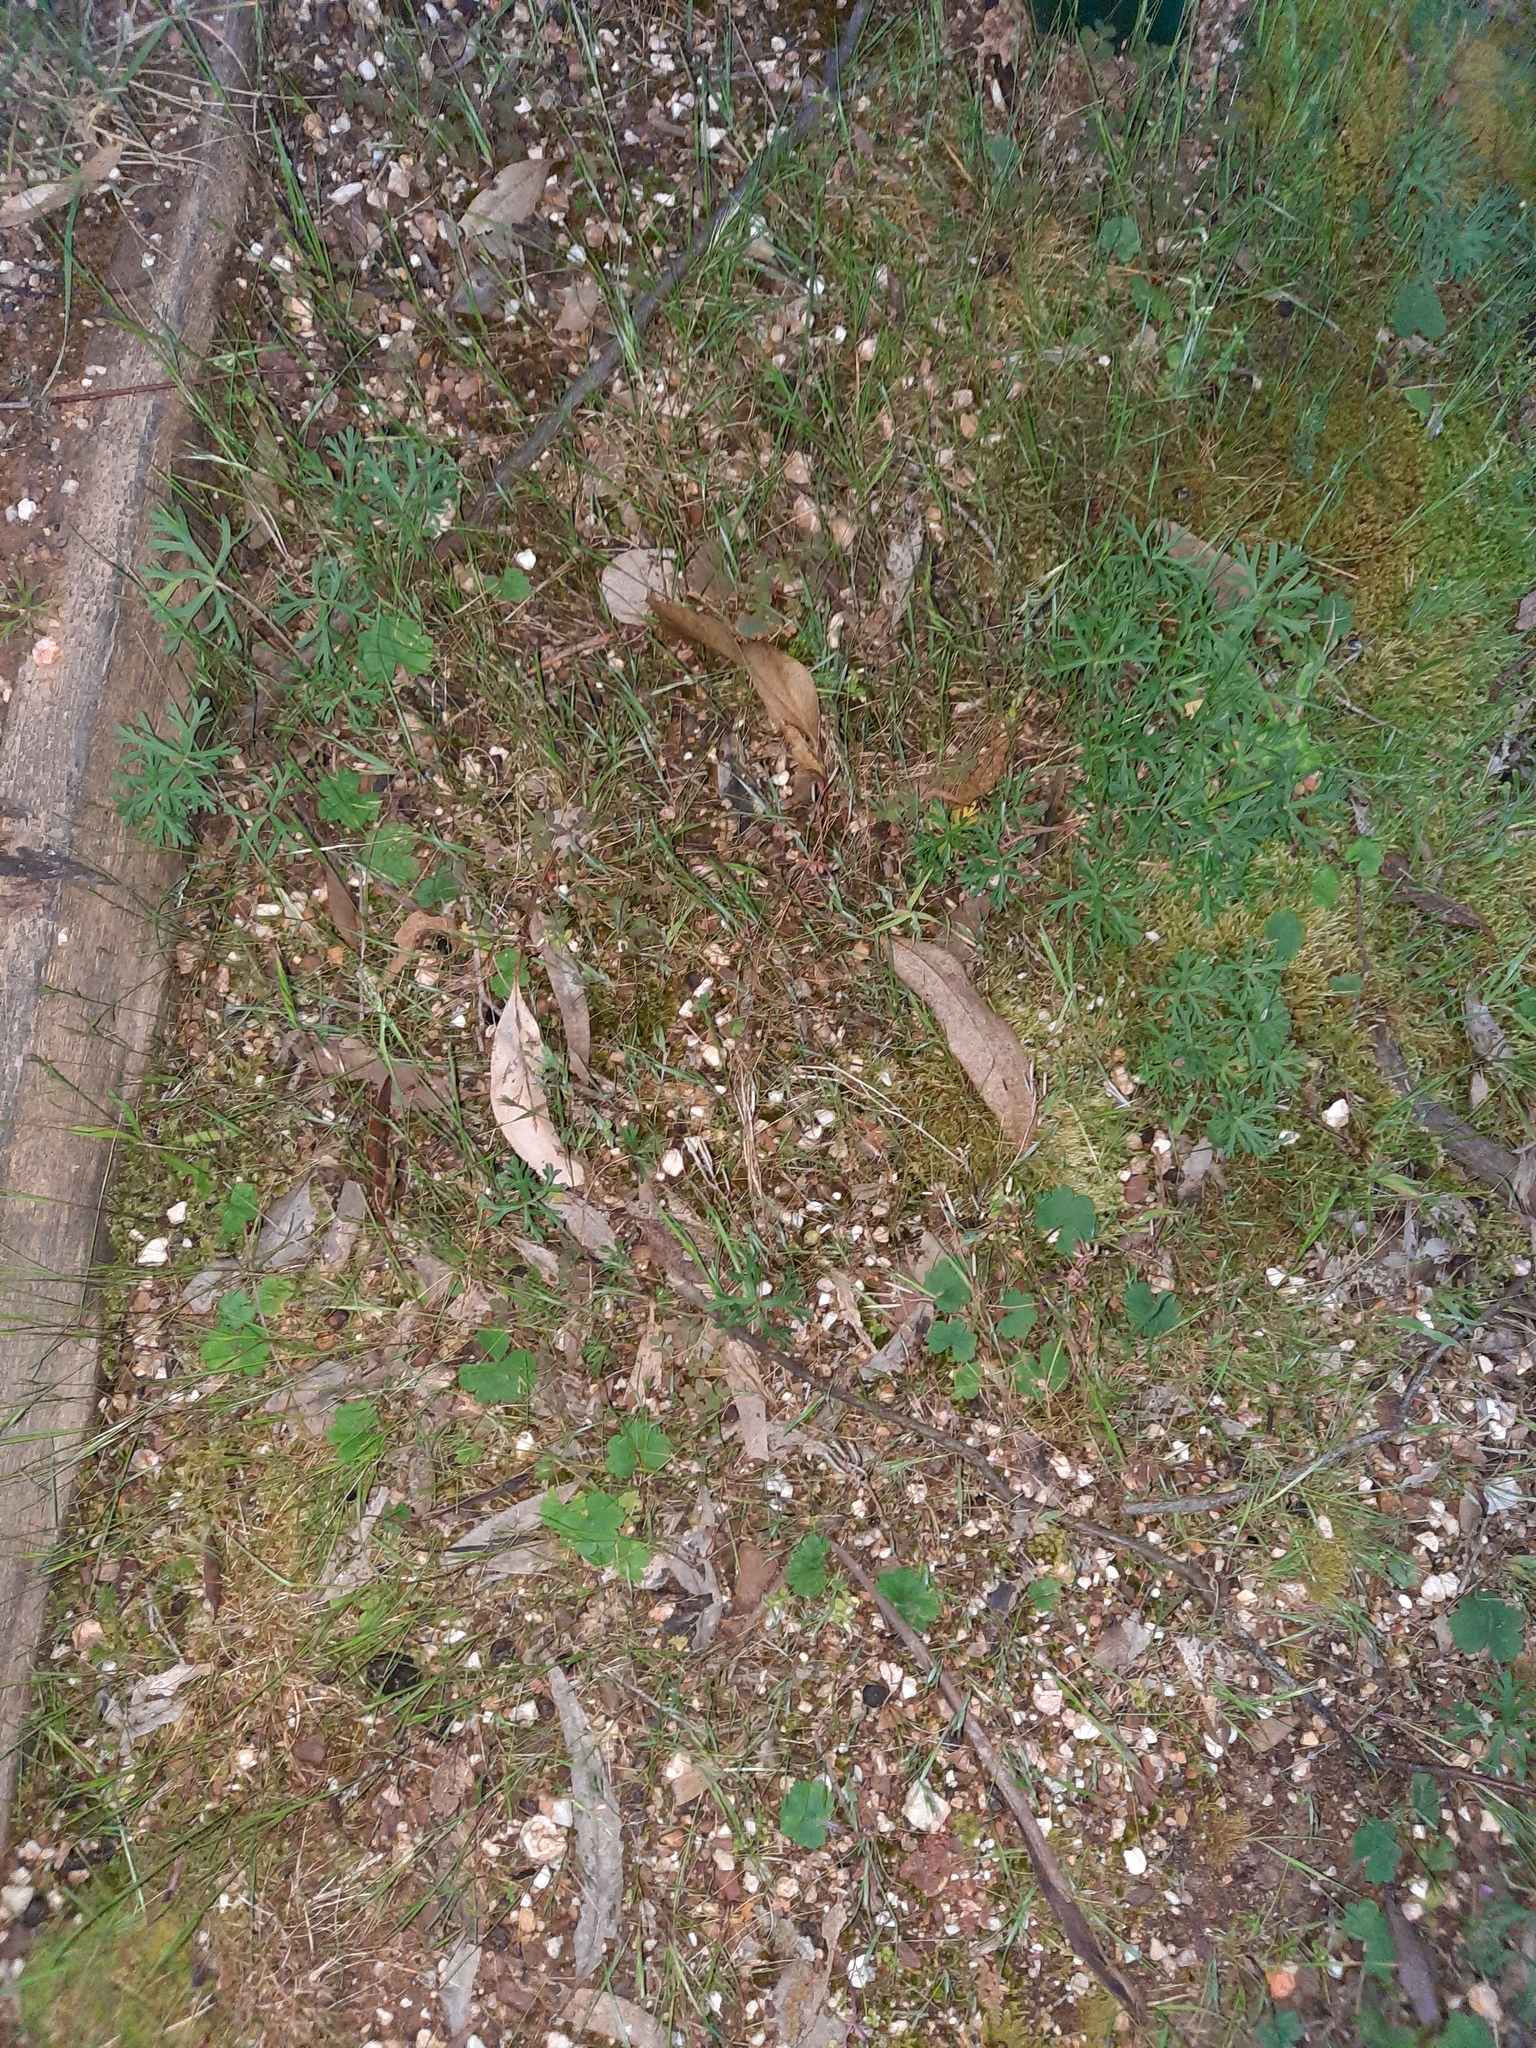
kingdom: Plantae
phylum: Tracheophyta
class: Magnoliopsida
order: Apiales
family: Araliaceae
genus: Hydrocotyle
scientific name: Hydrocotyle laxiflora
